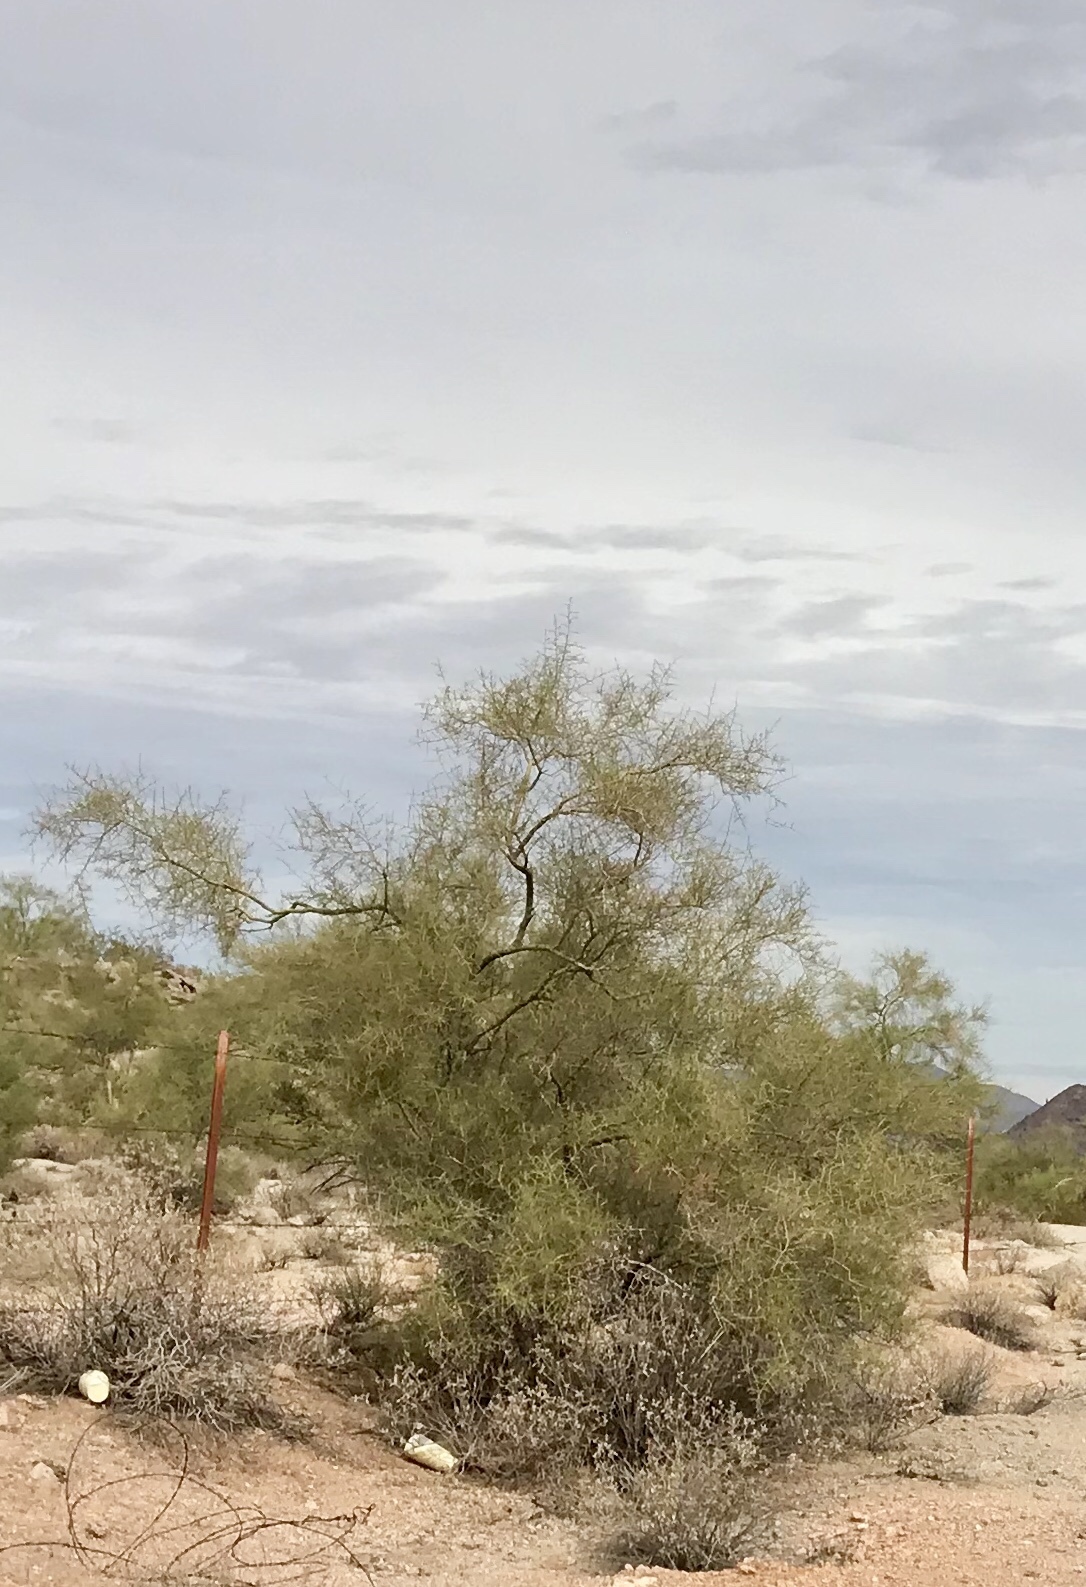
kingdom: Plantae
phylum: Tracheophyta
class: Magnoliopsida
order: Fabales
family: Fabaceae
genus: Parkinsonia
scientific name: Parkinsonia microphylla
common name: Yellow paloverde
